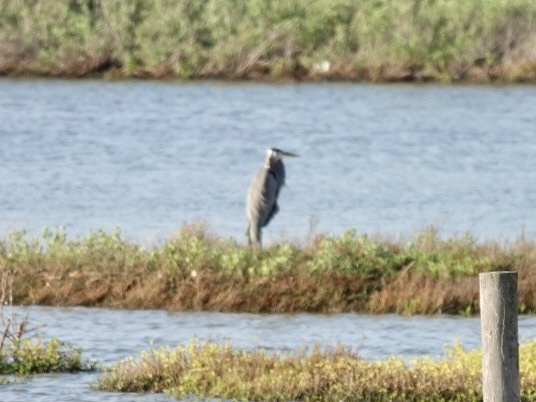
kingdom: Animalia
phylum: Chordata
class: Aves
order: Pelecaniformes
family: Ardeidae
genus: Ardea
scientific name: Ardea herodias
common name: Great blue heron
